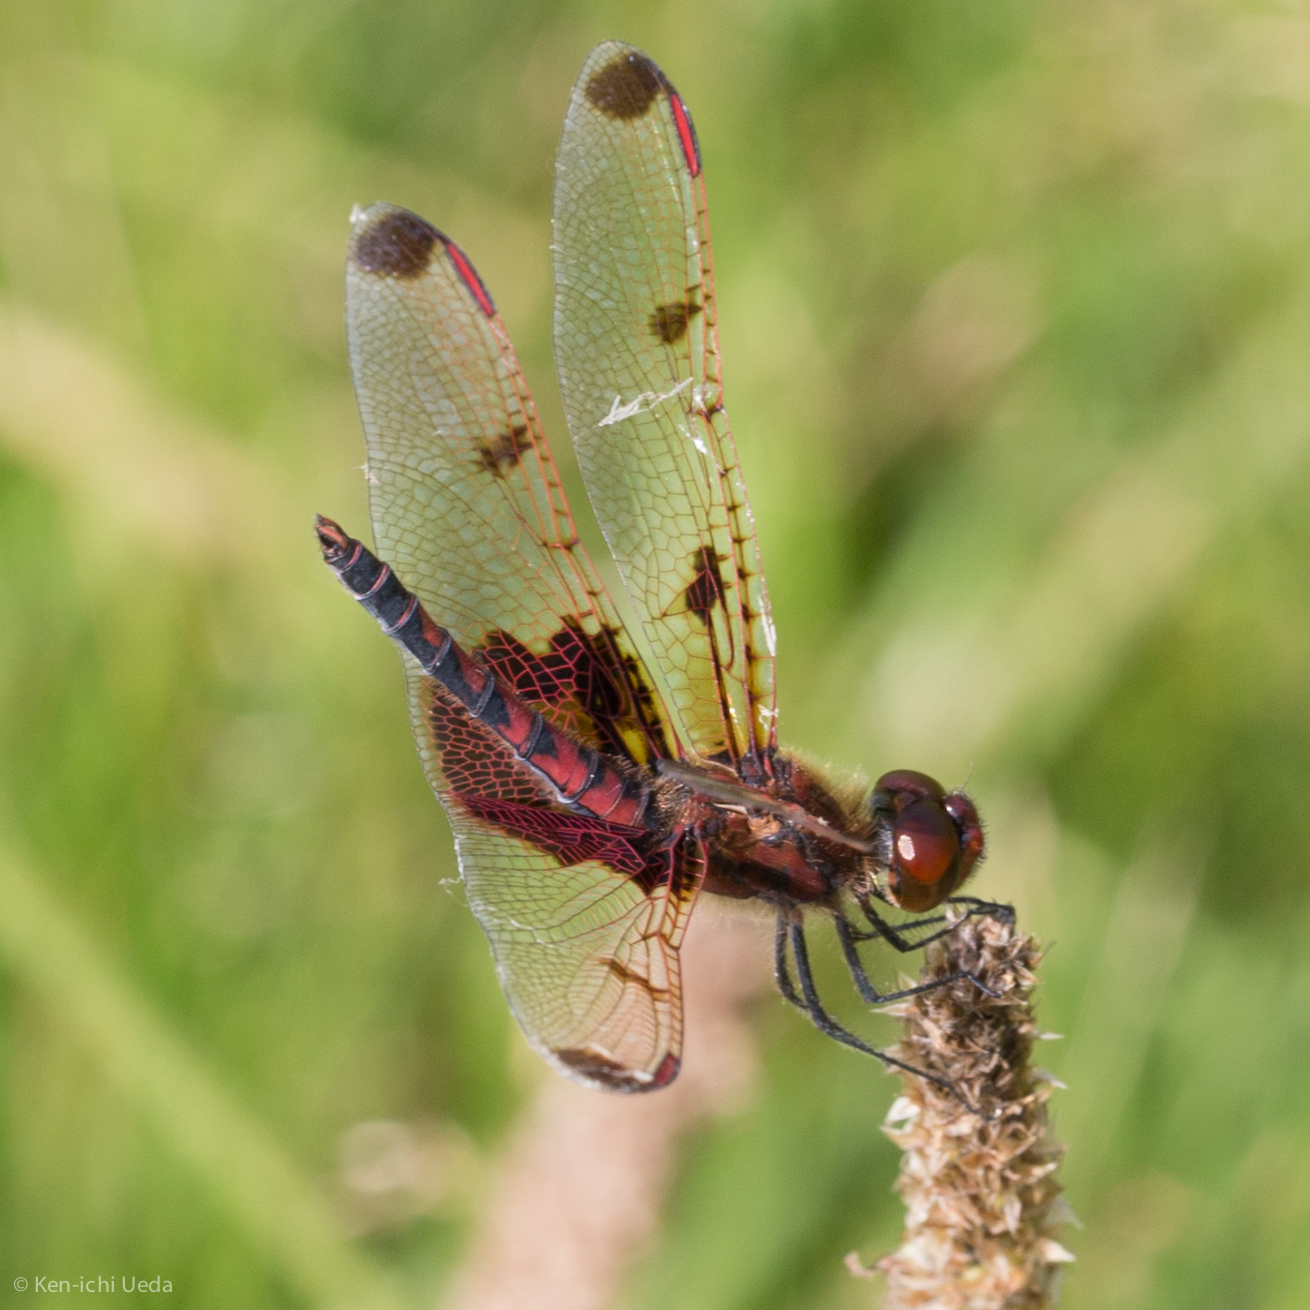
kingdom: Animalia
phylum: Arthropoda
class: Insecta
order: Odonata
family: Libellulidae
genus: Celithemis
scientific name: Celithemis elisa
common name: Calico pennant
